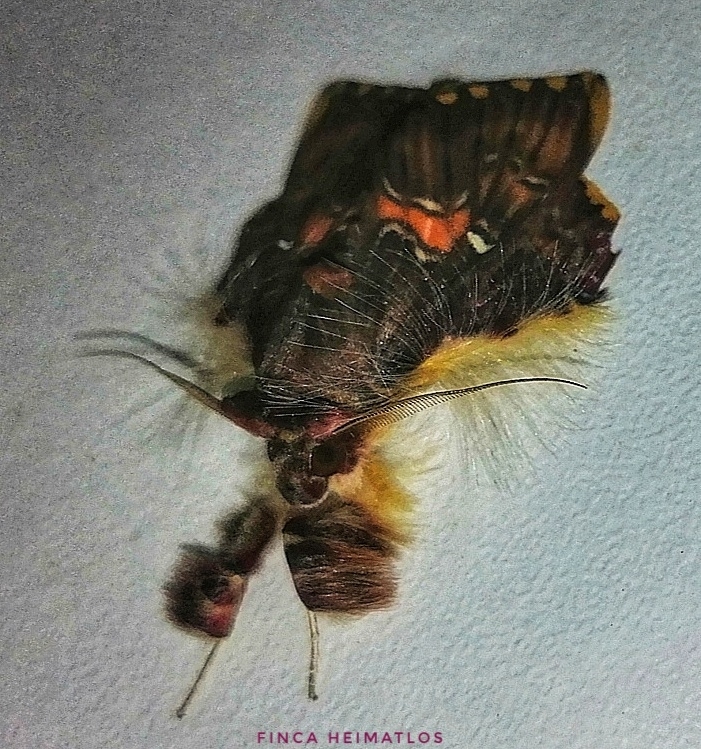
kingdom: Animalia
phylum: Arthropoda
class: Insecta
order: Lepidoptera
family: Erebidae
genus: Sosxetra
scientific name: Sosxetra grata
